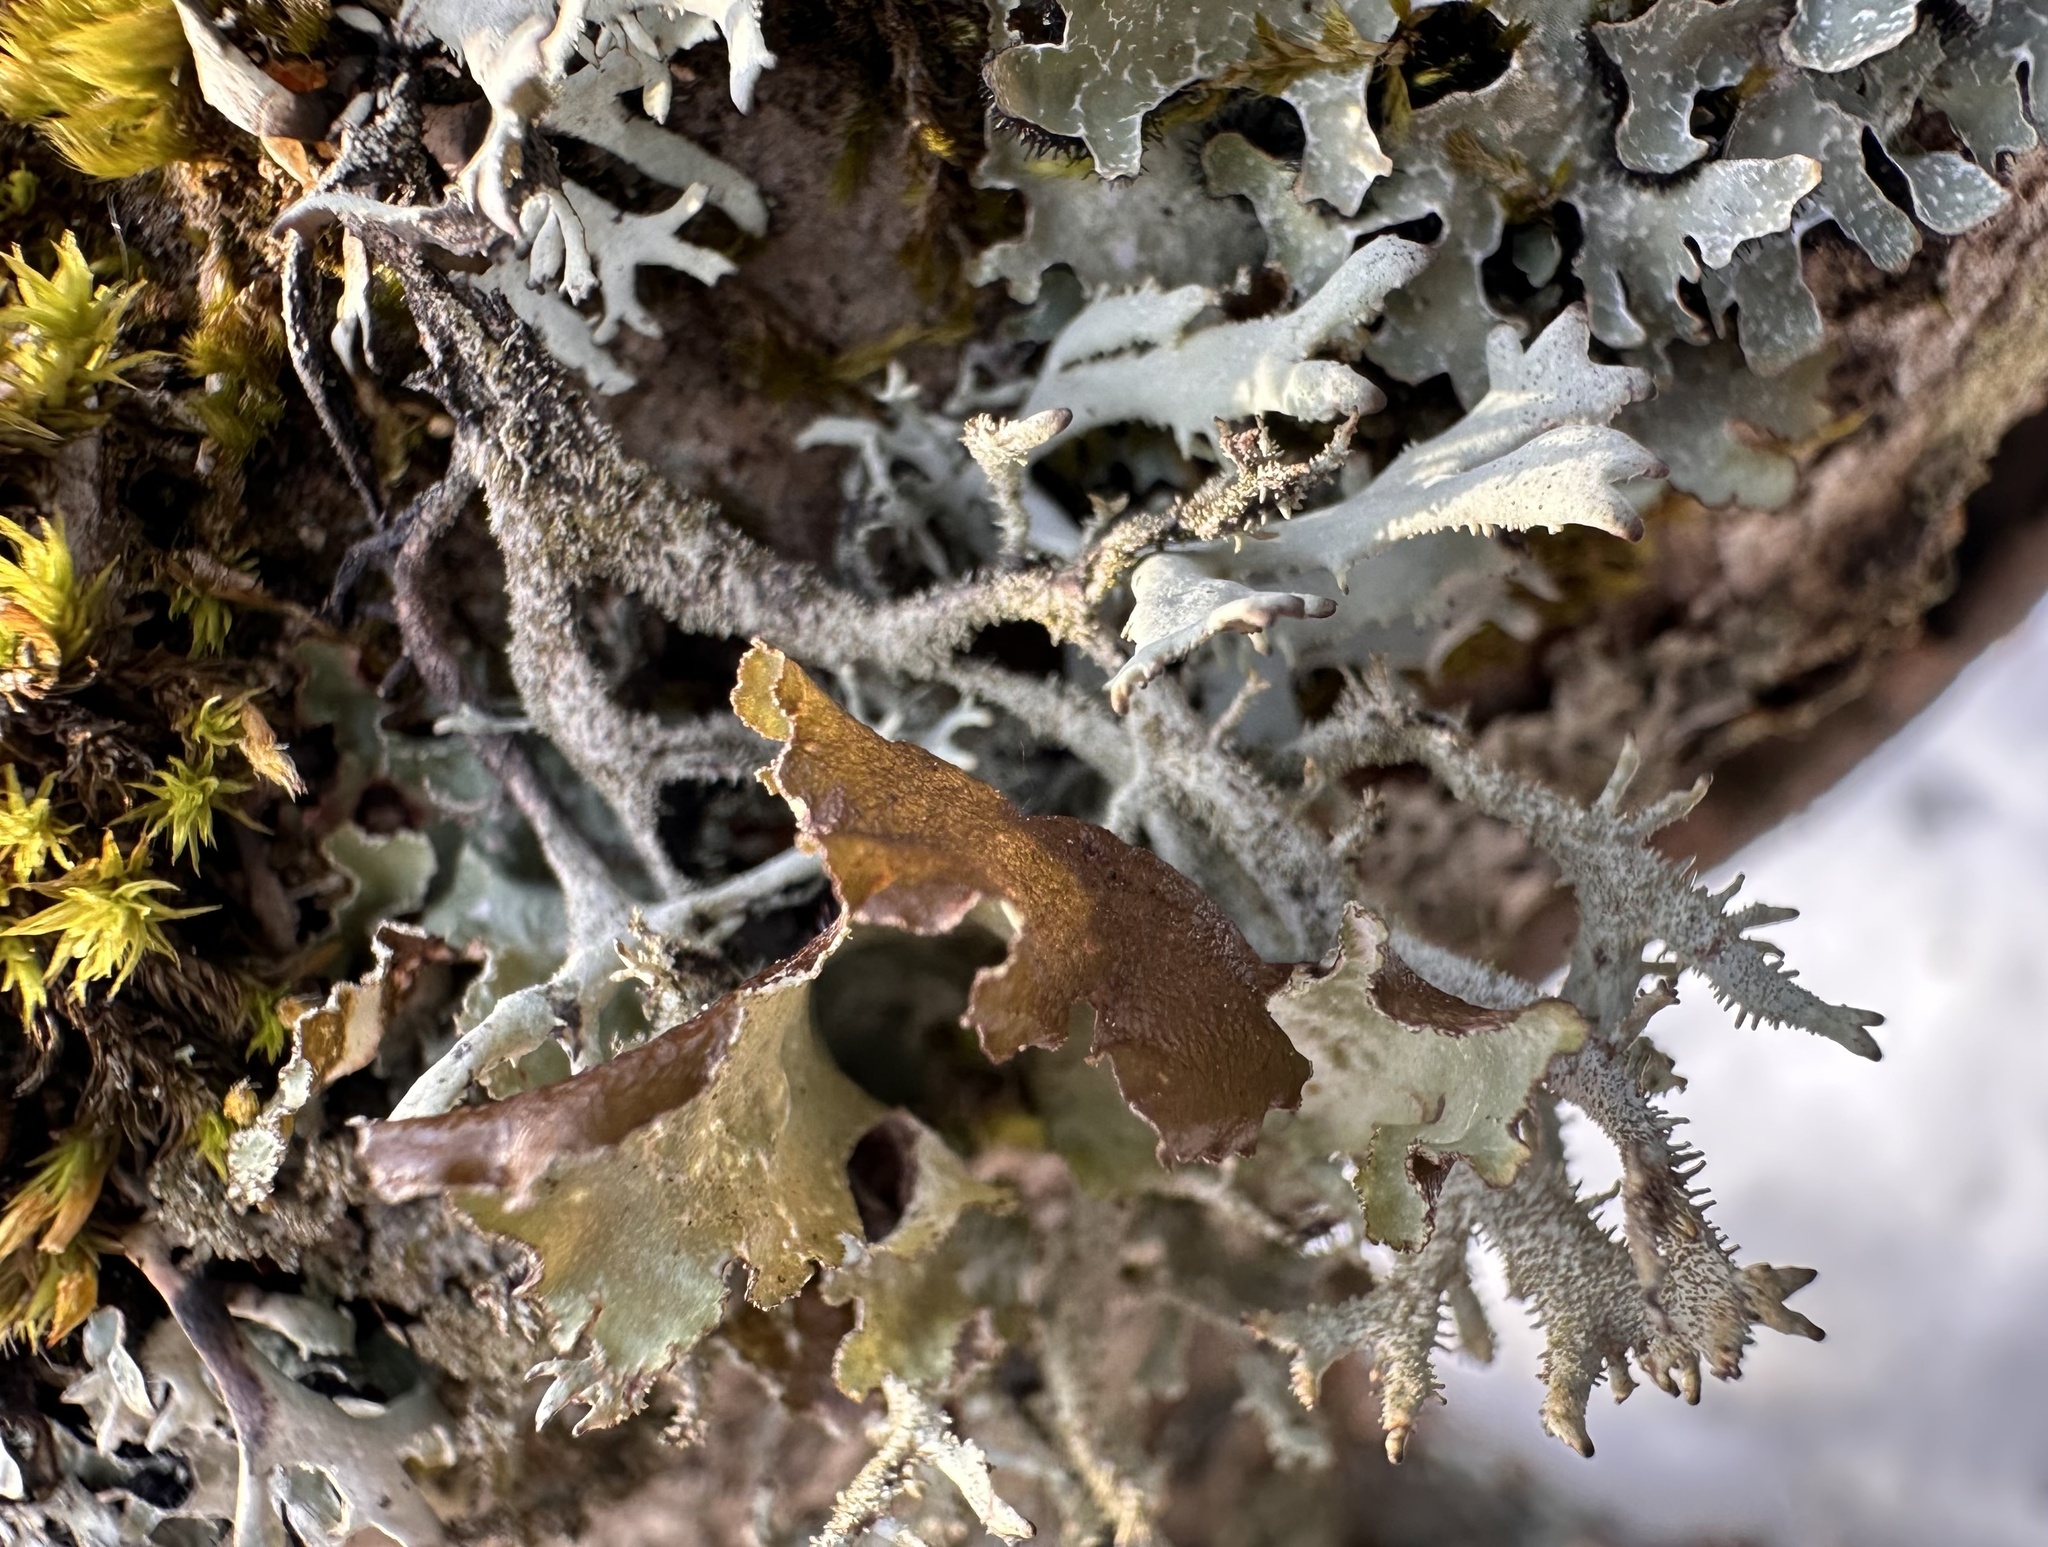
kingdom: Fungi
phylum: Ascomycota
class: Lecanoromycetes
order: Lecanorales
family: Parmeliaceae
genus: Pseudevernia
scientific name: Pseudevernia furfuracea
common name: Tree moss
